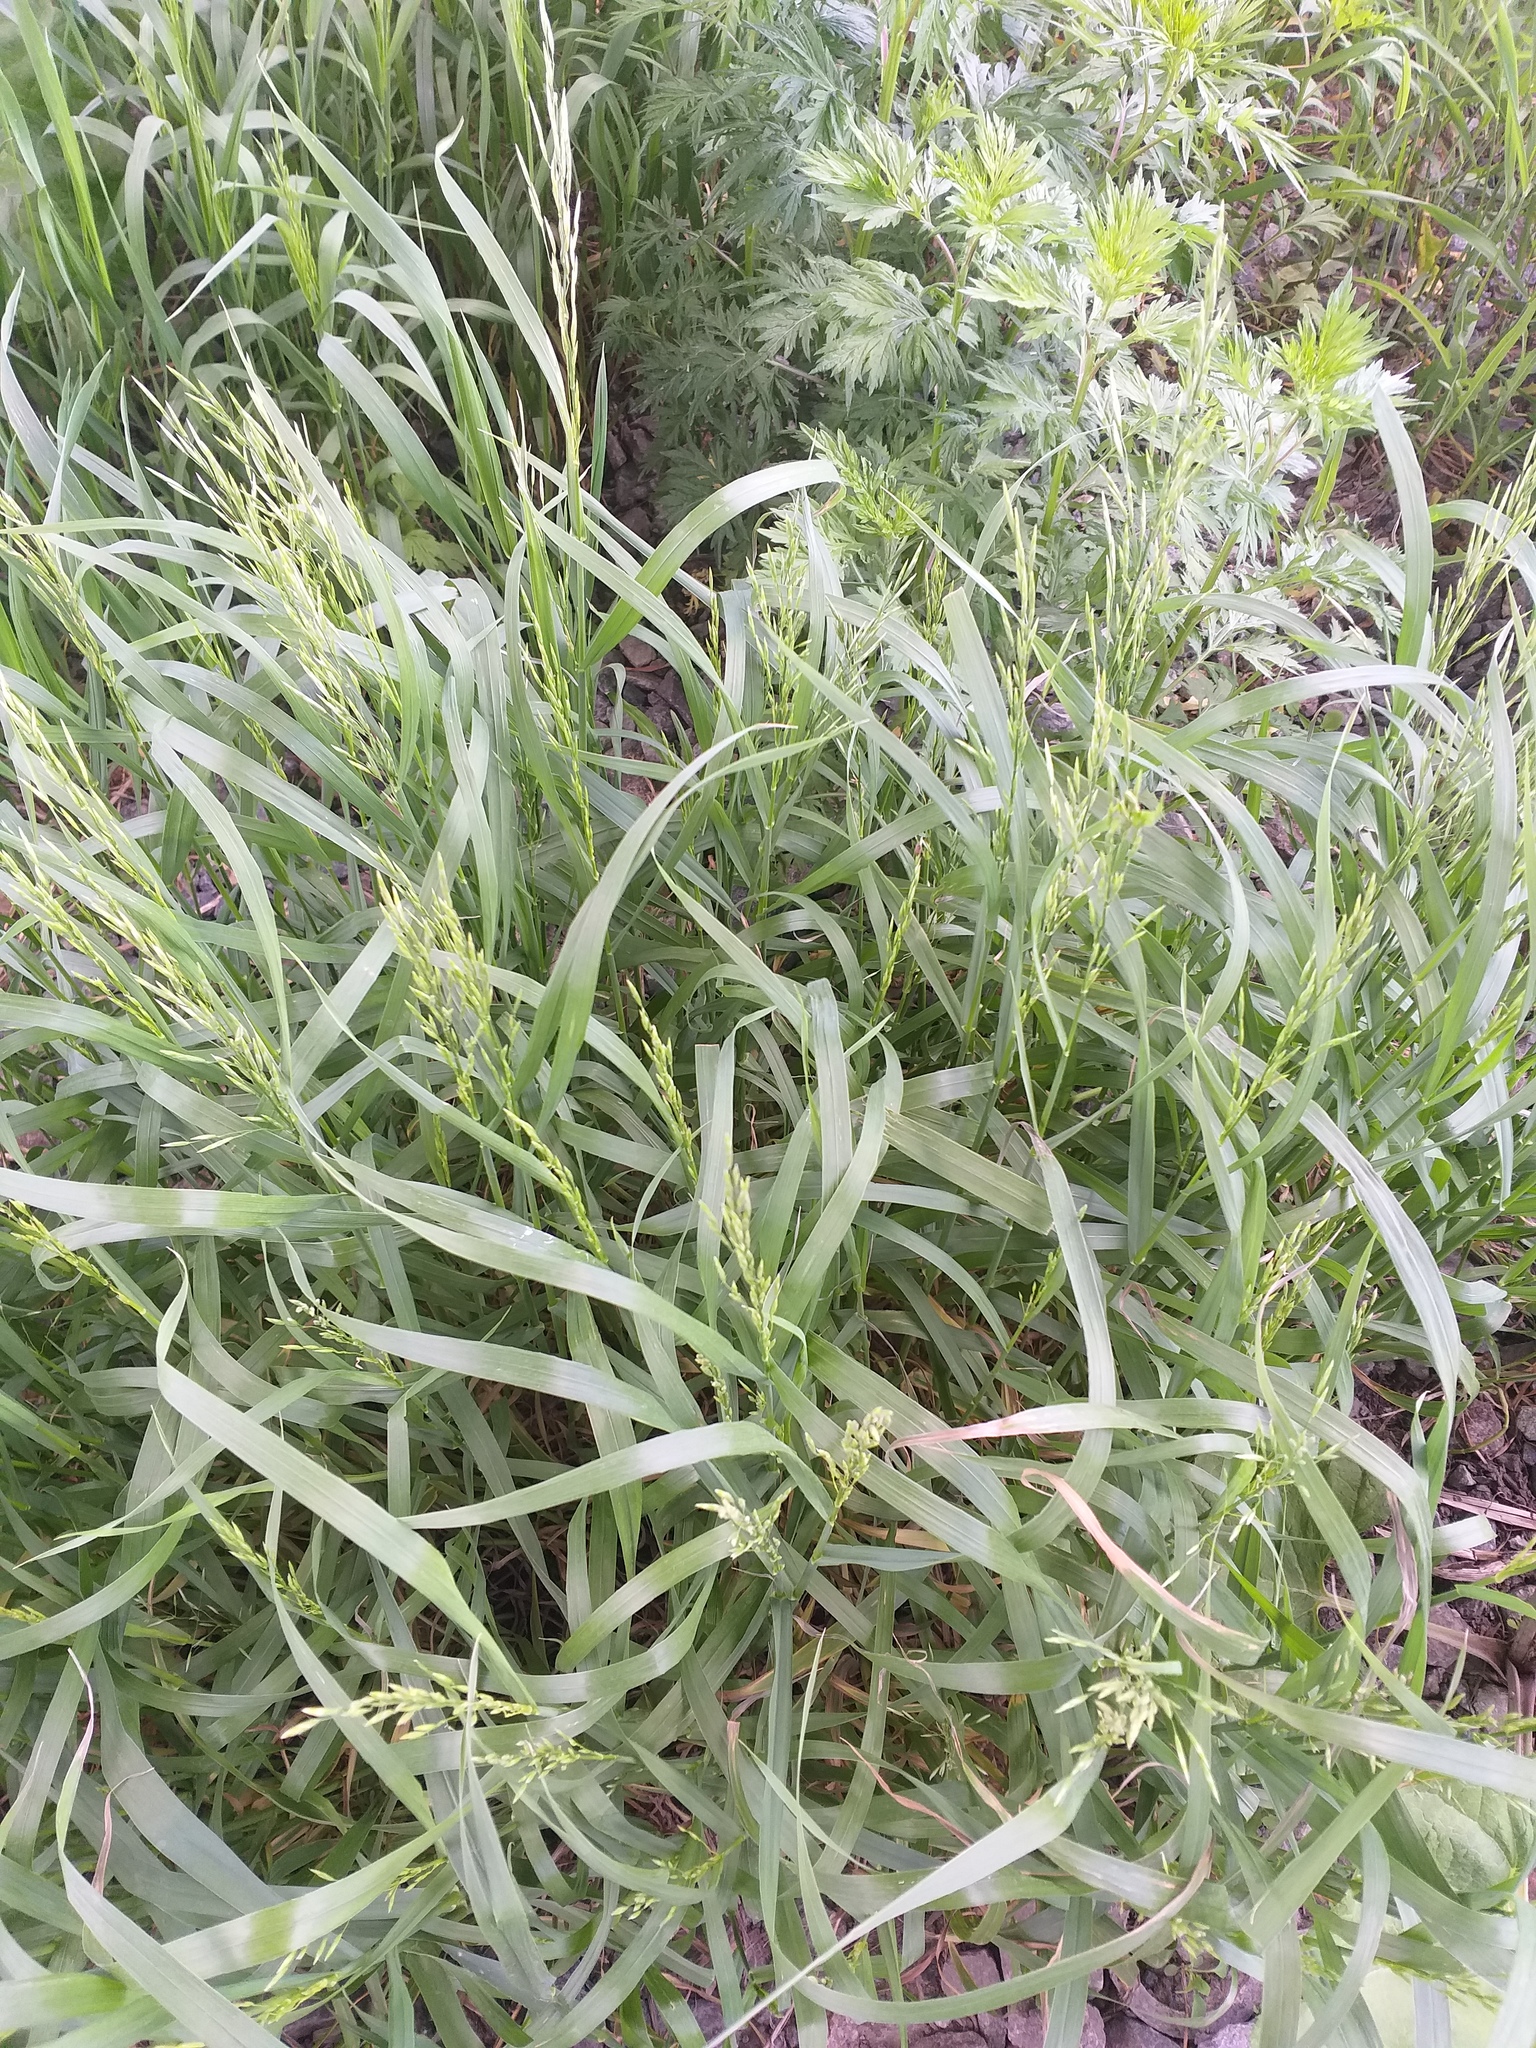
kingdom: Plantae
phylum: Tracheophyta
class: Liliopsida
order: Poales
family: Poaceae
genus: Bromus
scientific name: Bromus inermis
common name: Smooth brome
